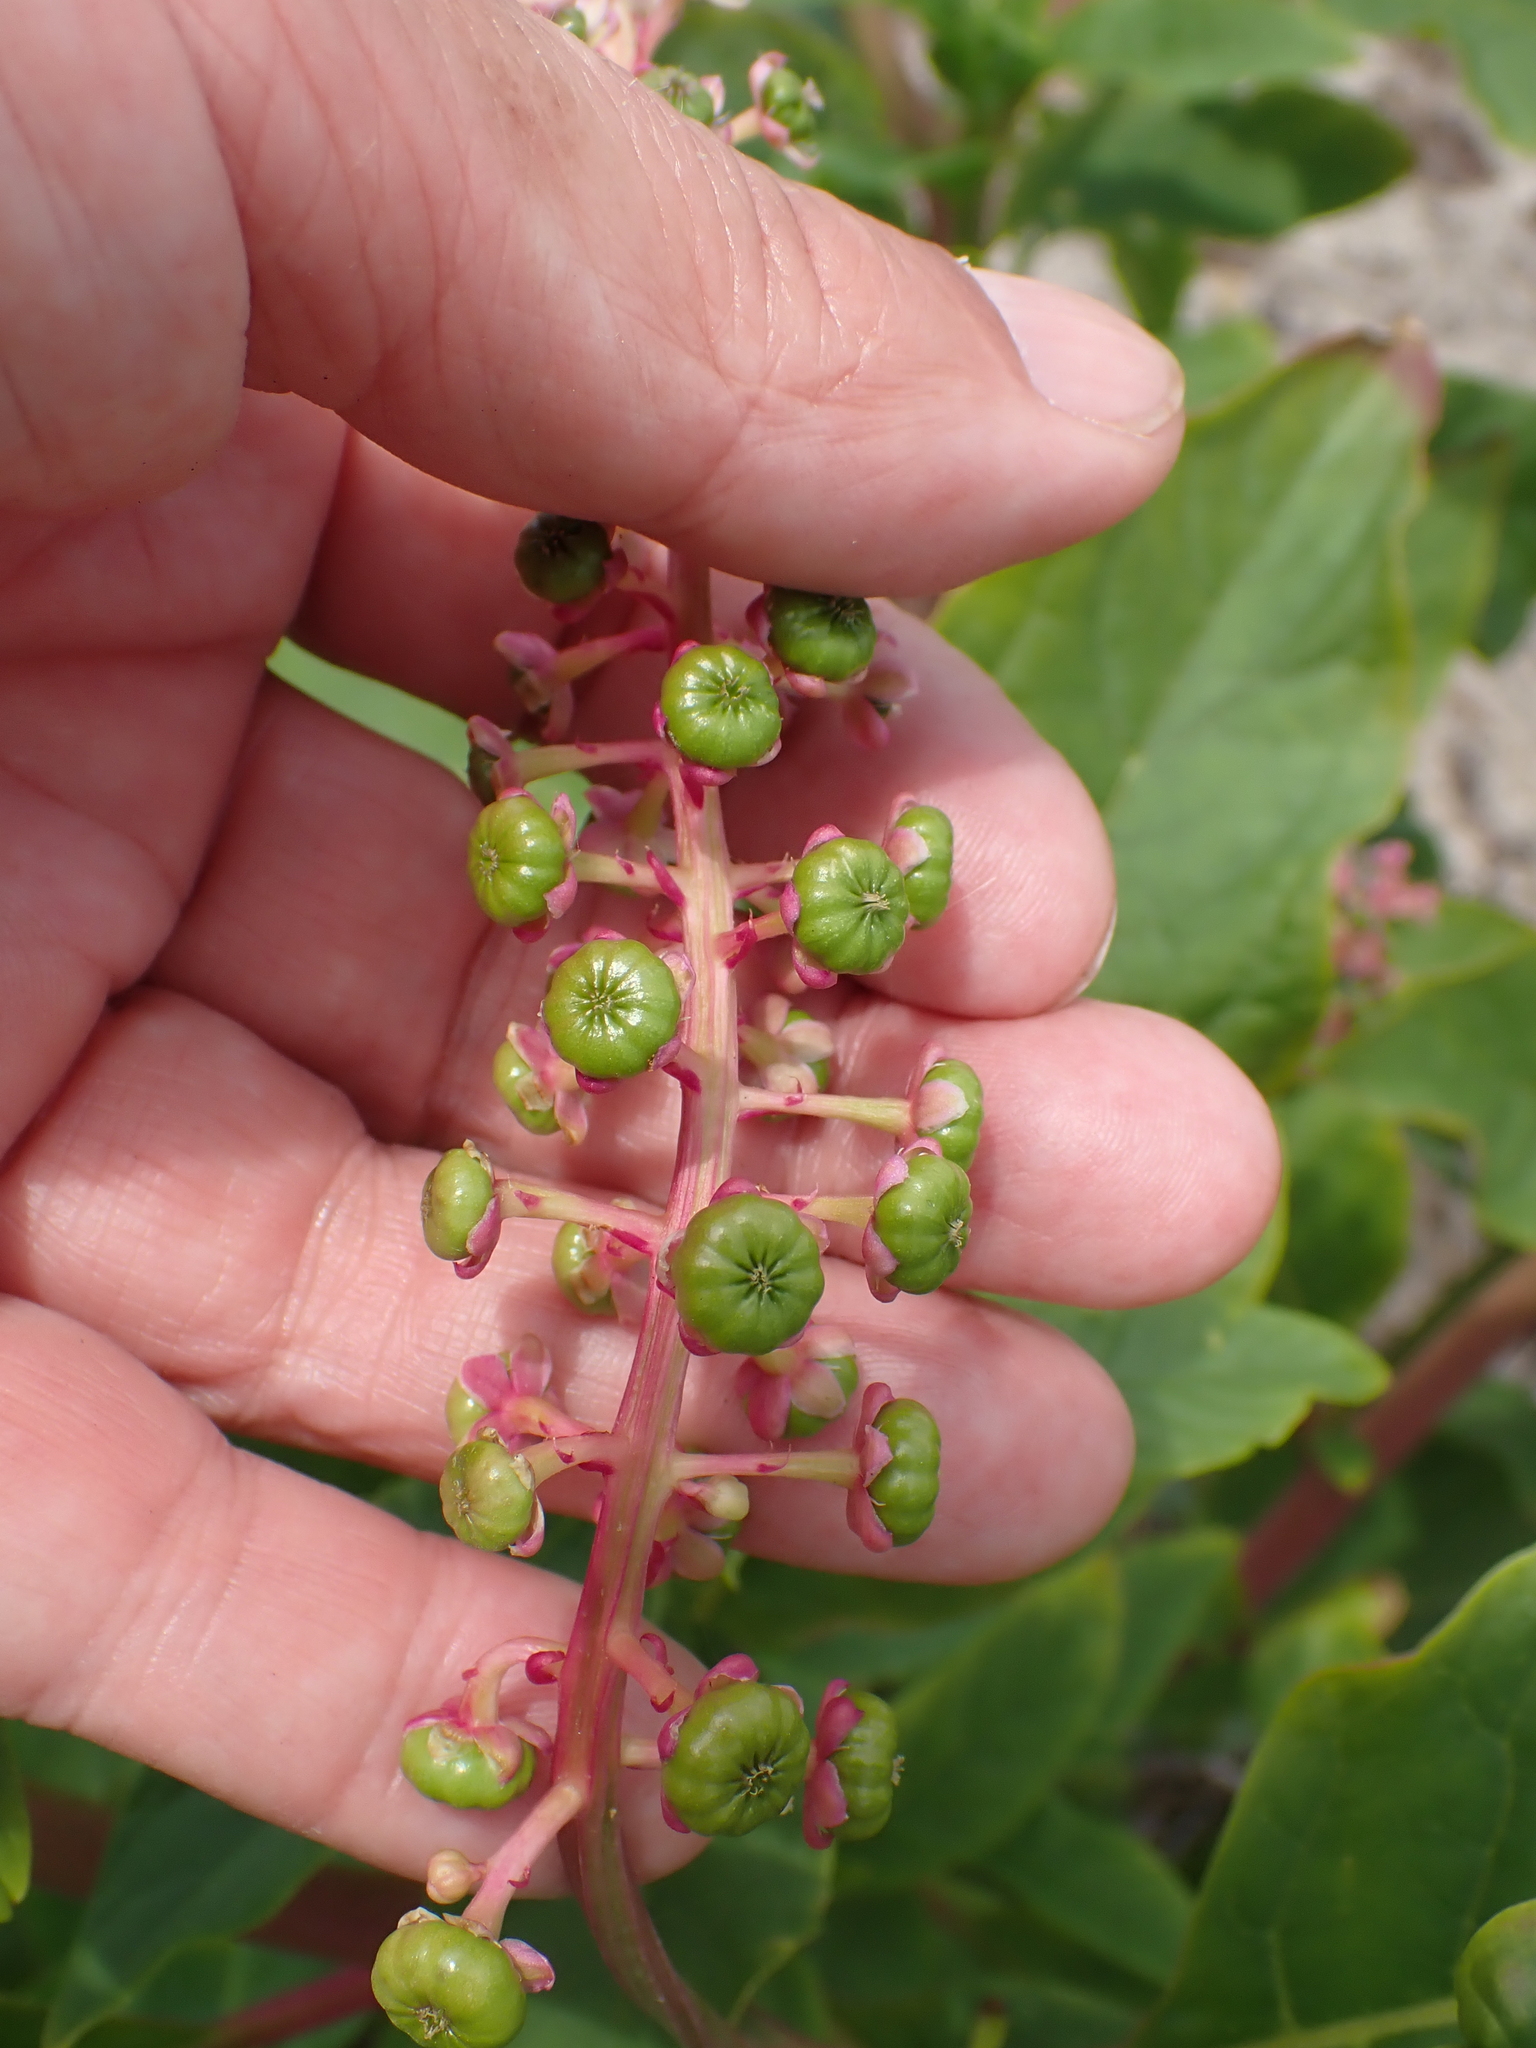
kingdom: Plantae
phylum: Tracheophyta
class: Magnoliopsida
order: Caryophyllales
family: Phytolaccaceae
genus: Phytolacca
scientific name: Phytolacca americana
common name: American pokeweed
